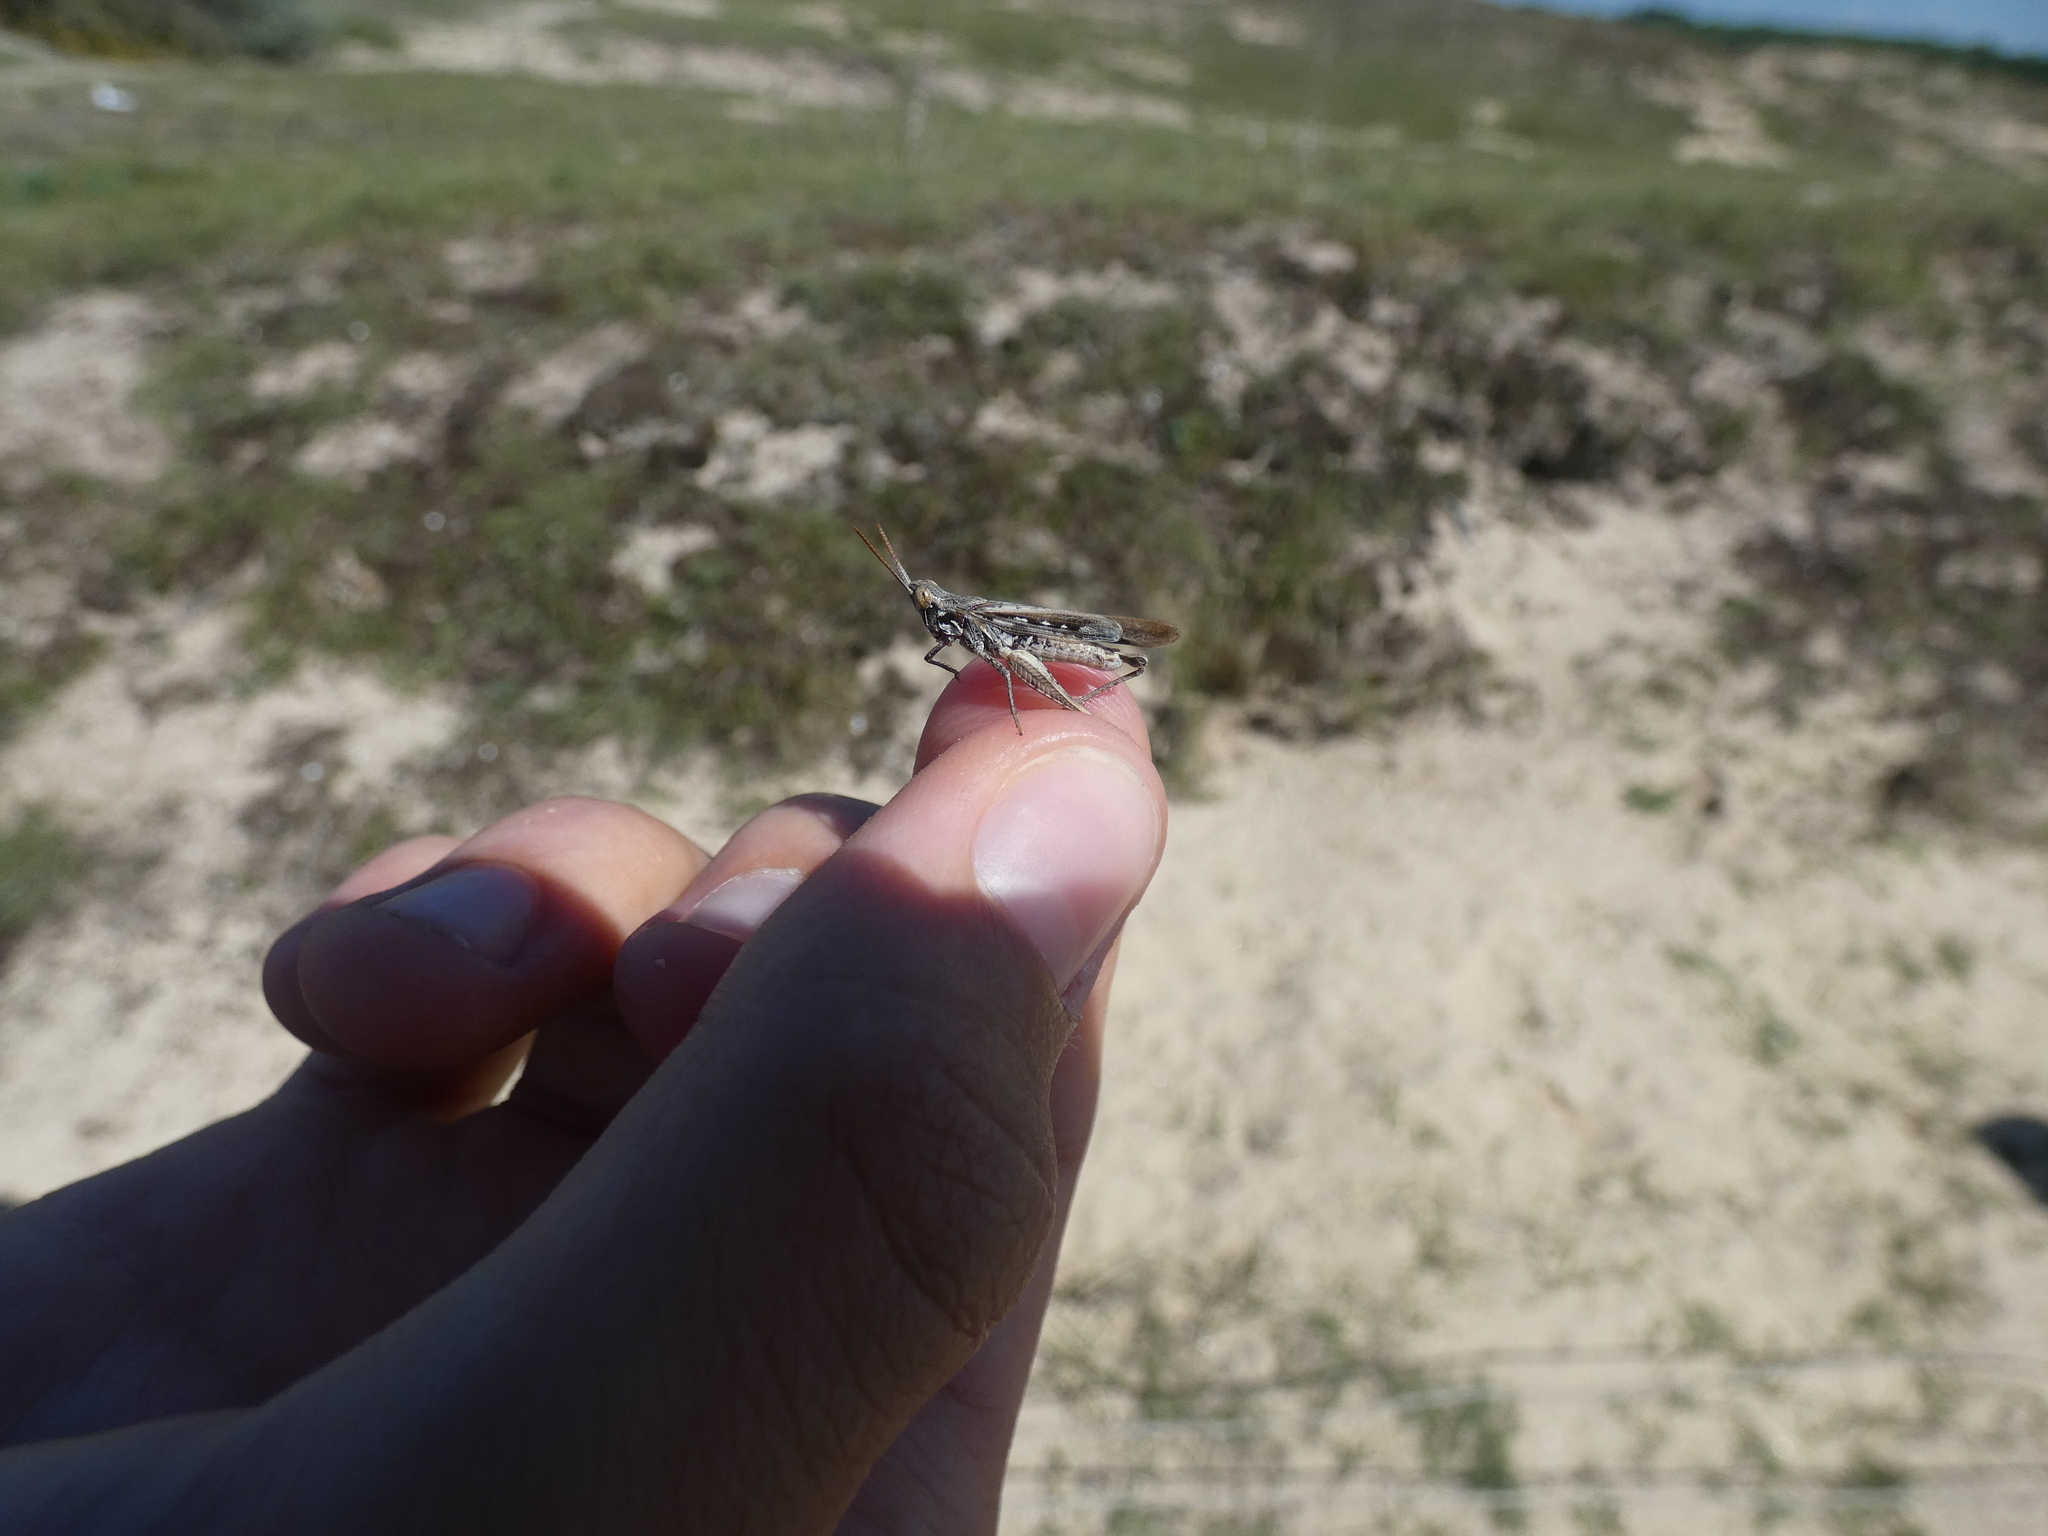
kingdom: Animalia
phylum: Arthropoda
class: Insecta
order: Orthoptera
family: Acrididae
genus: Calephorus
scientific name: Calephorus compressicornis
